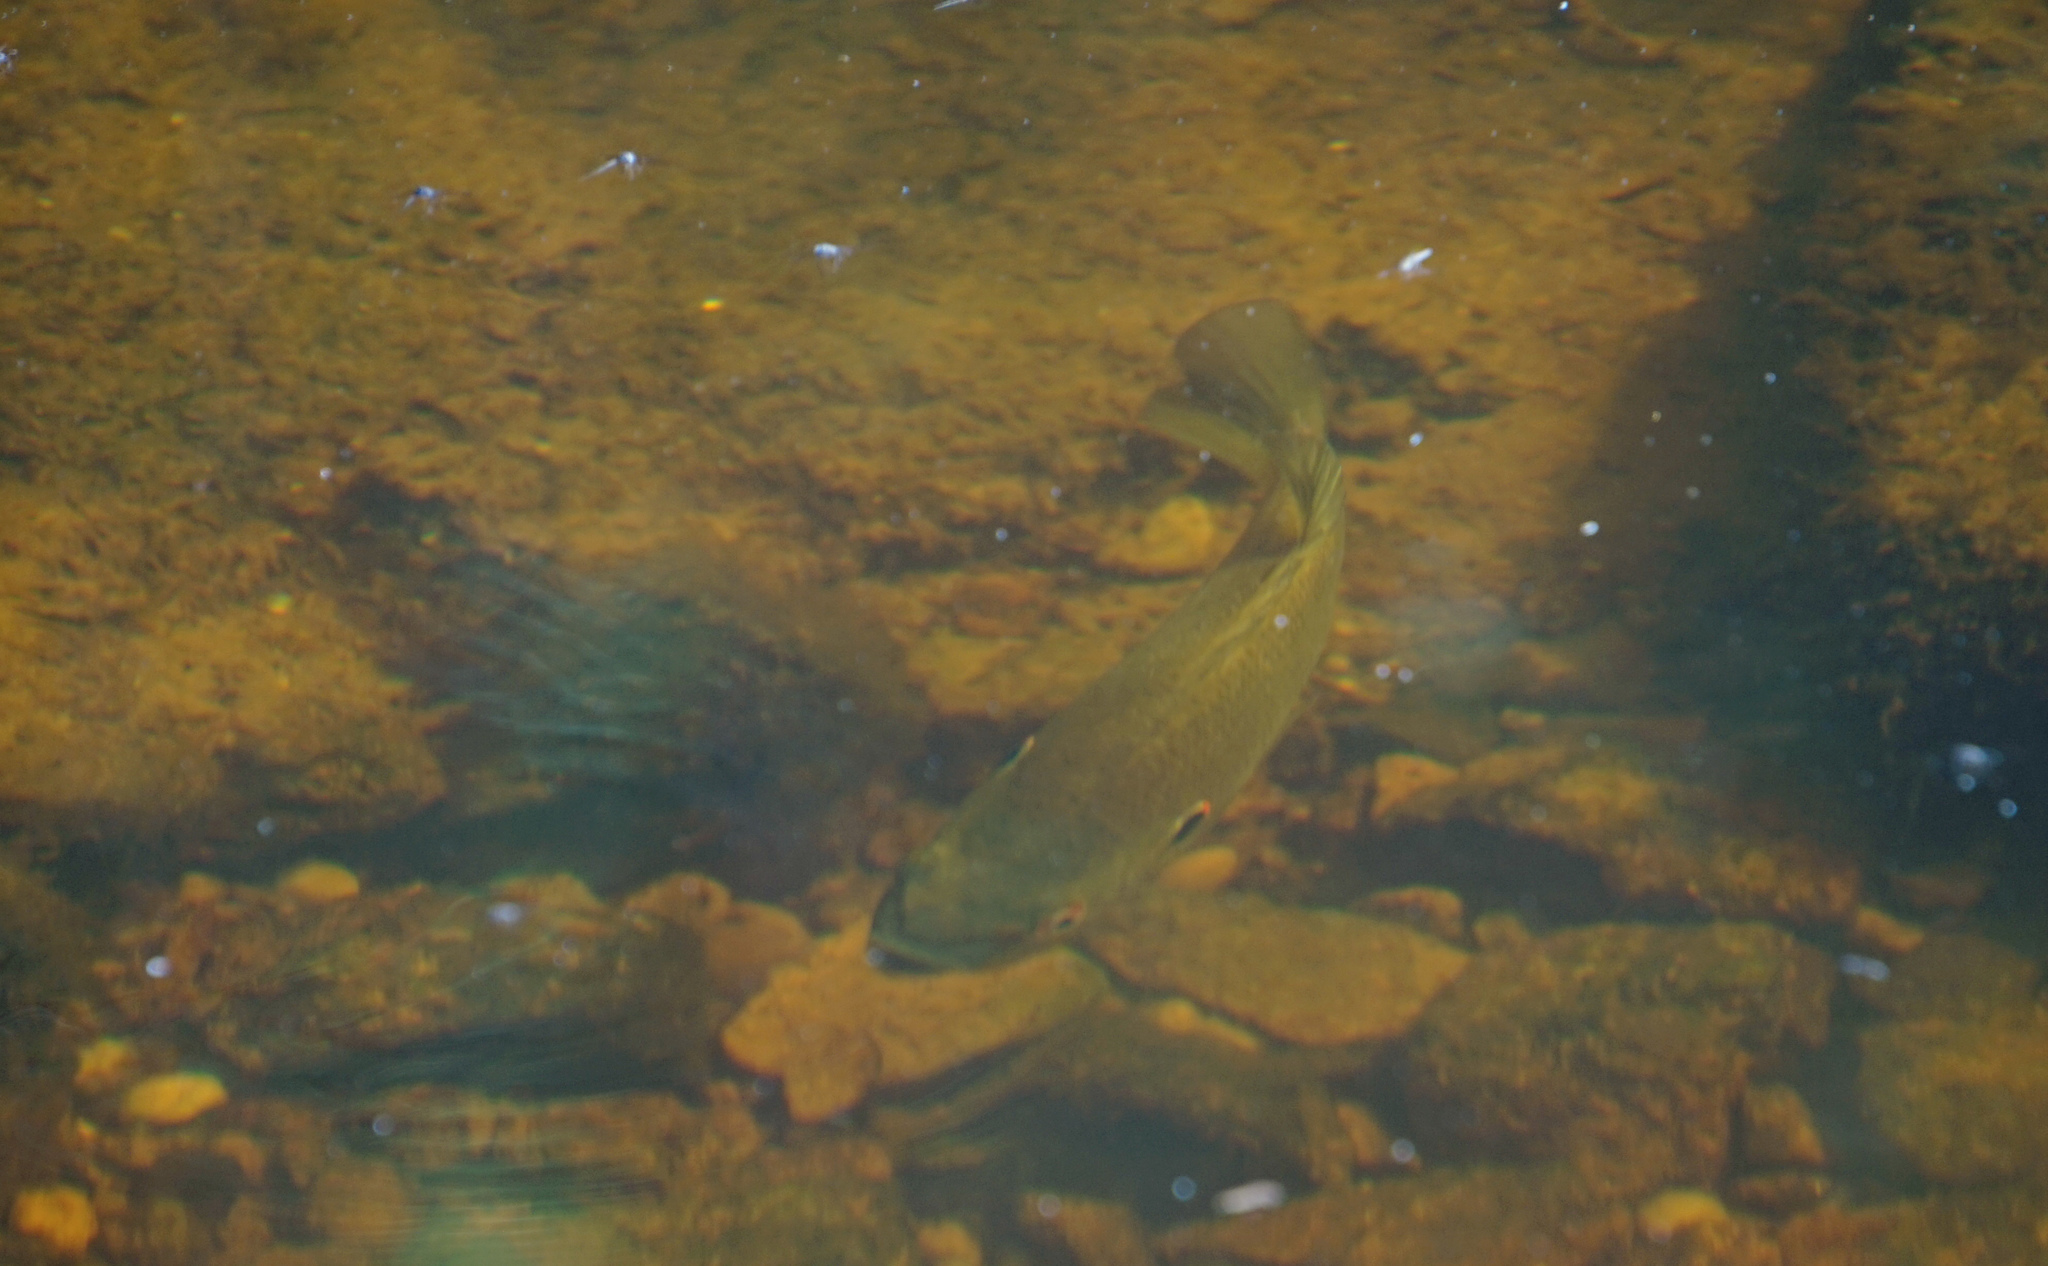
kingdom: Animalia
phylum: Chordata
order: Perciformes
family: Centrarchidae
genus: Lepomis
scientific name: Lepomis macrochirus
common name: Bluegill
